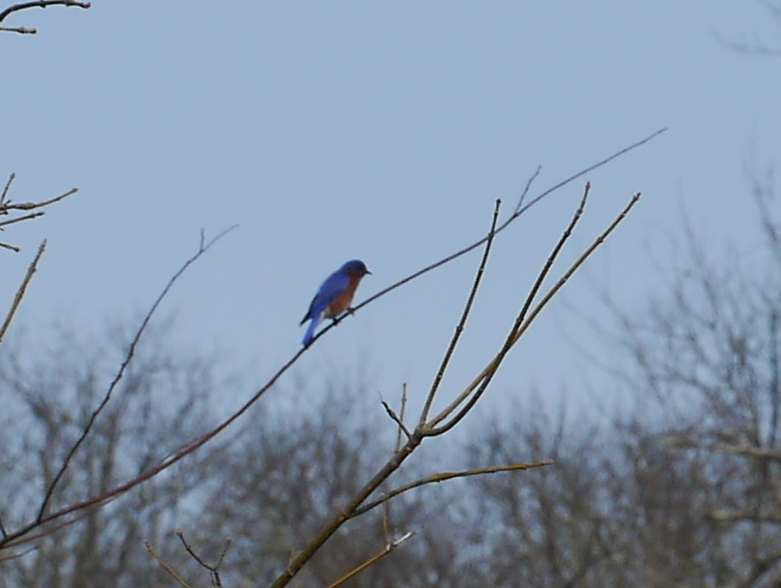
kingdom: Animalia
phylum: Chordata
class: Aves
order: Passeriformes
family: Turdidae
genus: Sialia
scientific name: Sialia sialis
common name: Eastern bluebird
